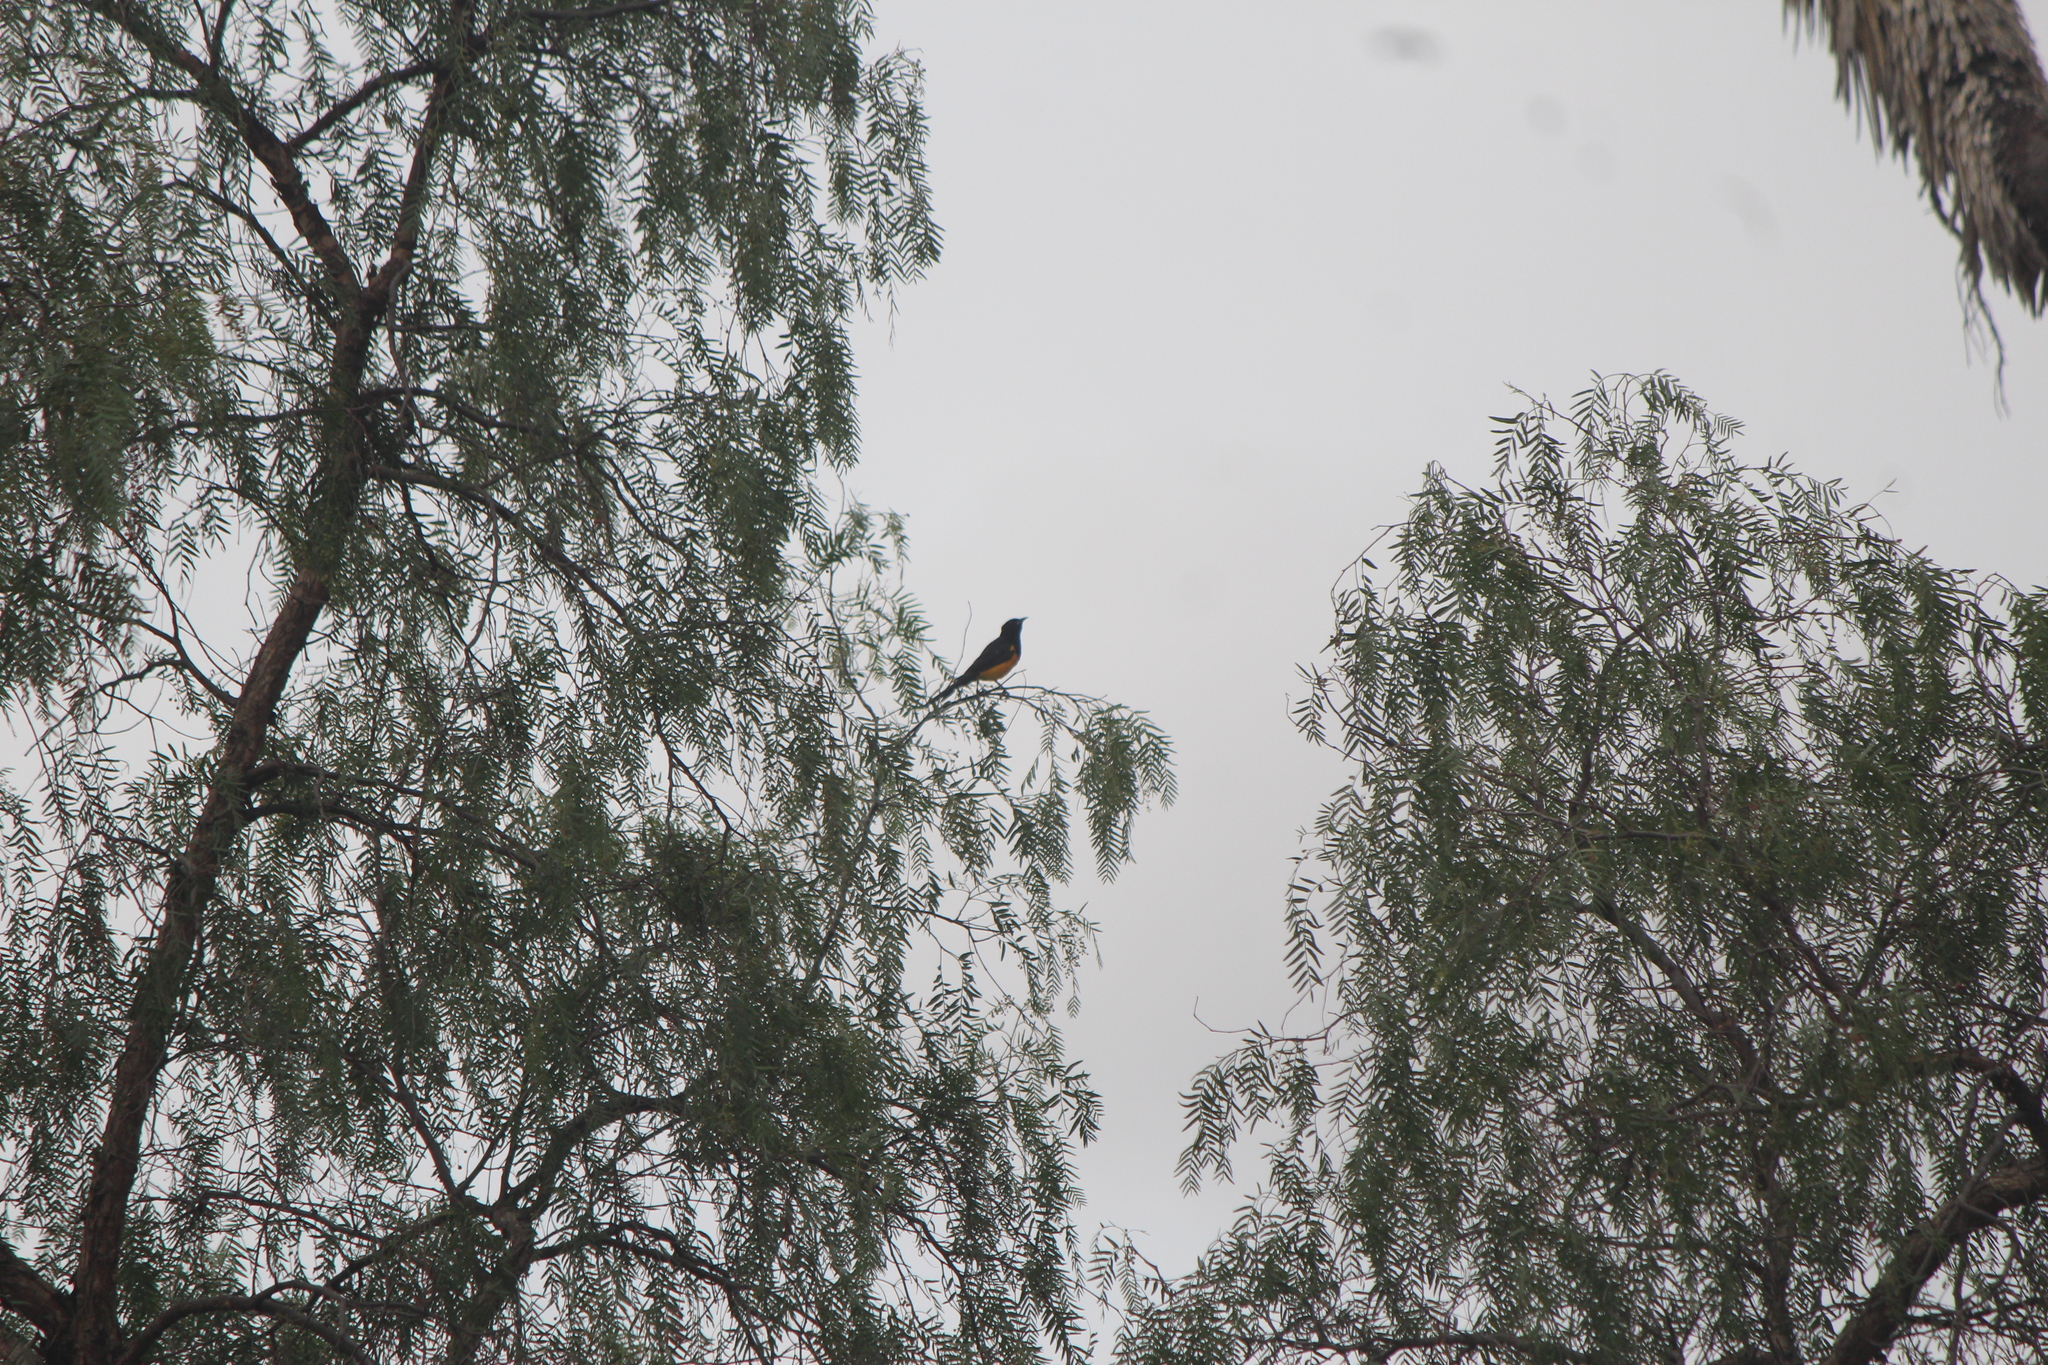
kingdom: Animalia
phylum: Chordata
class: Aves
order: Passeriformes
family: Icteridae
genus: Icterus
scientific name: Icterus wagleri
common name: Black-vented oriole
